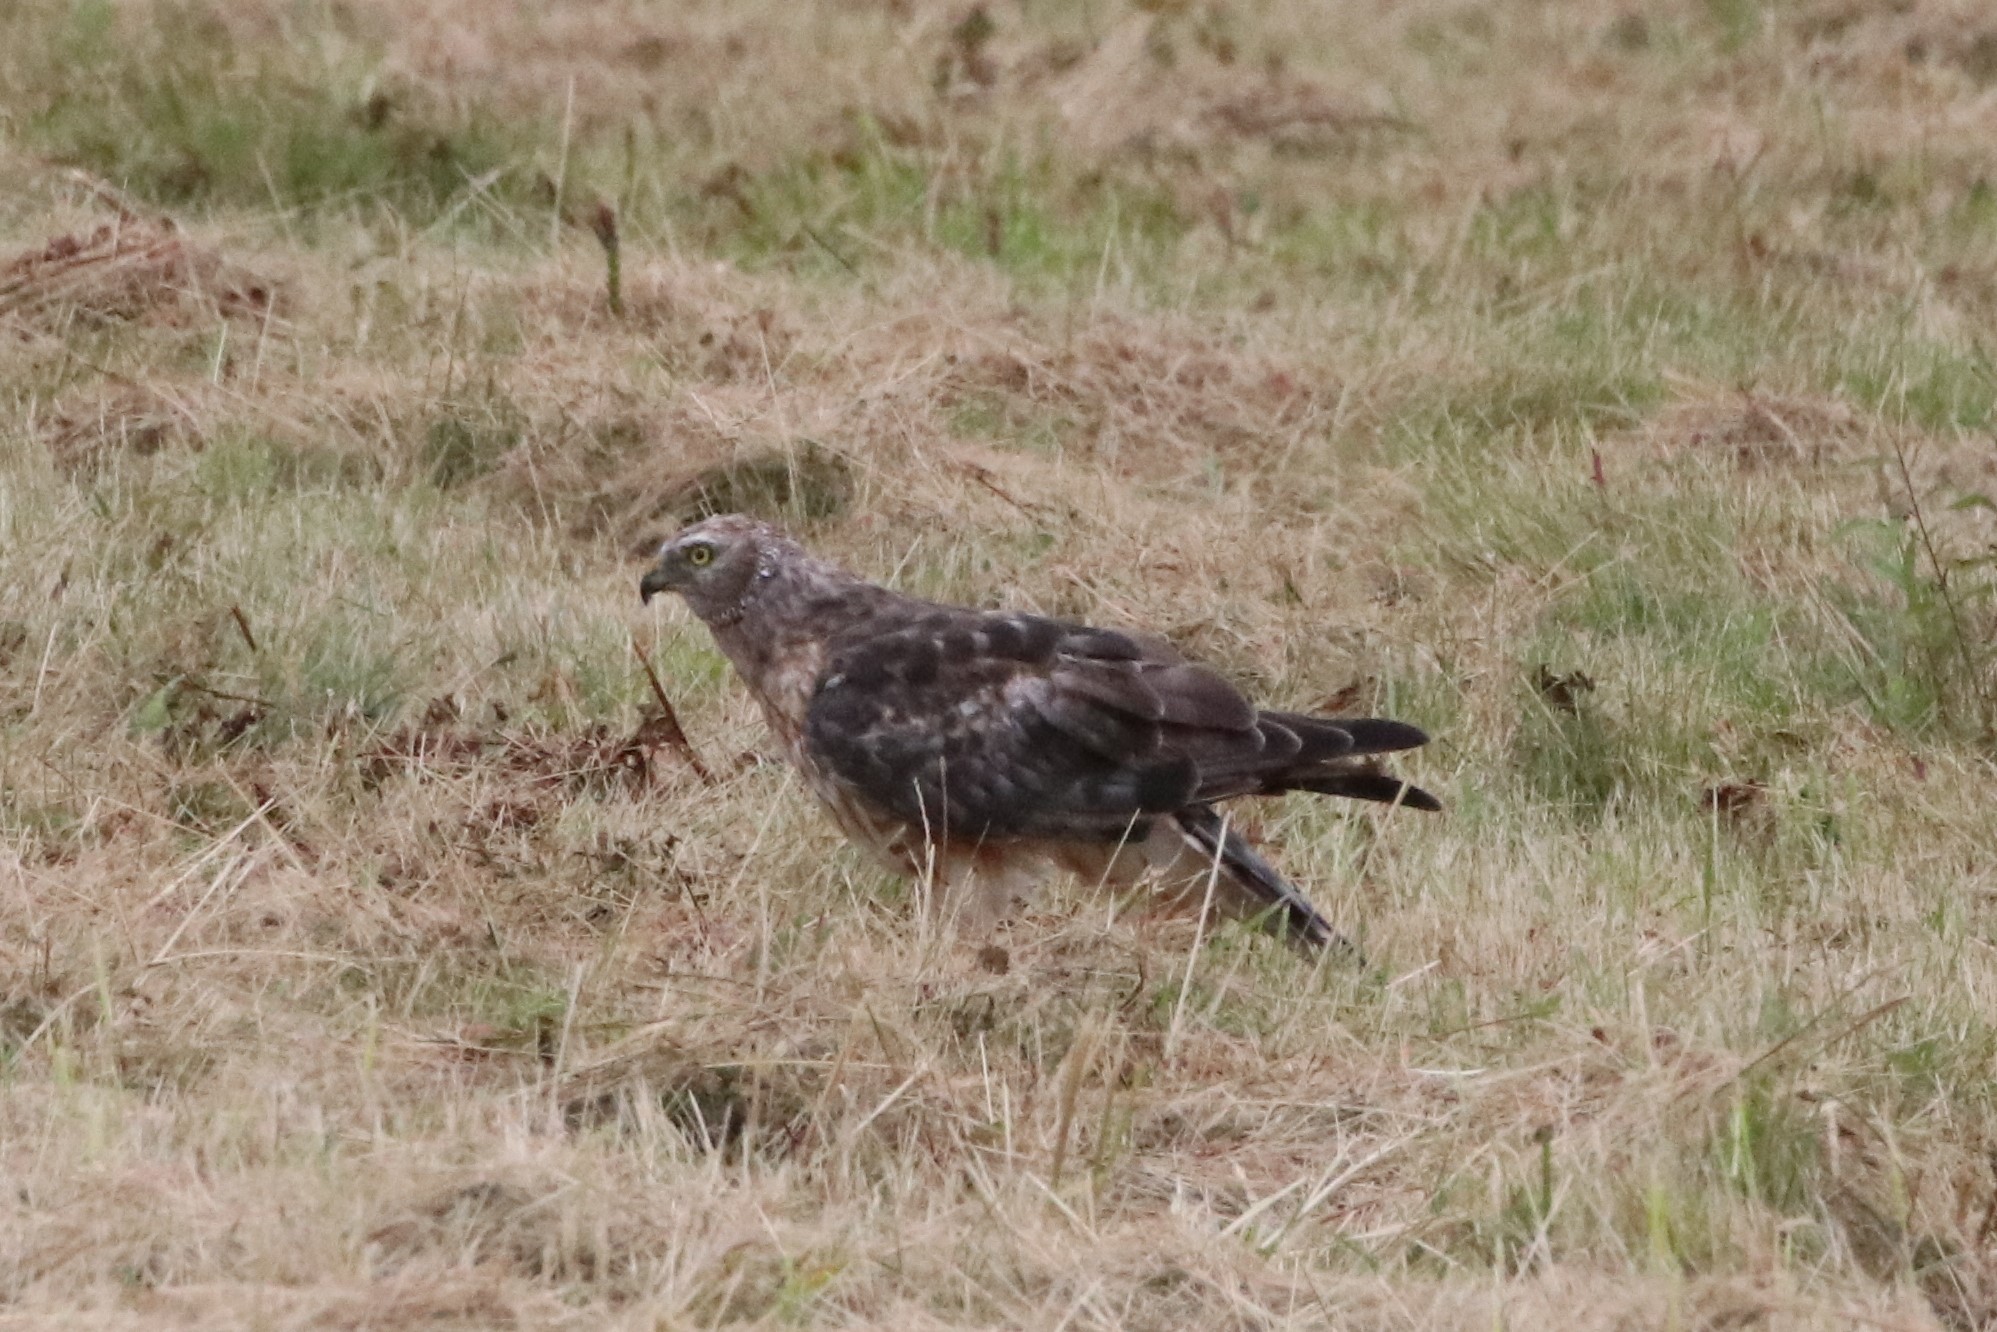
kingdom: Animalia
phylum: Chordata
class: Aves
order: Accipitriformes
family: Accipitridae
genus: Circus
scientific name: Circus cyaneus
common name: Hen harrier
